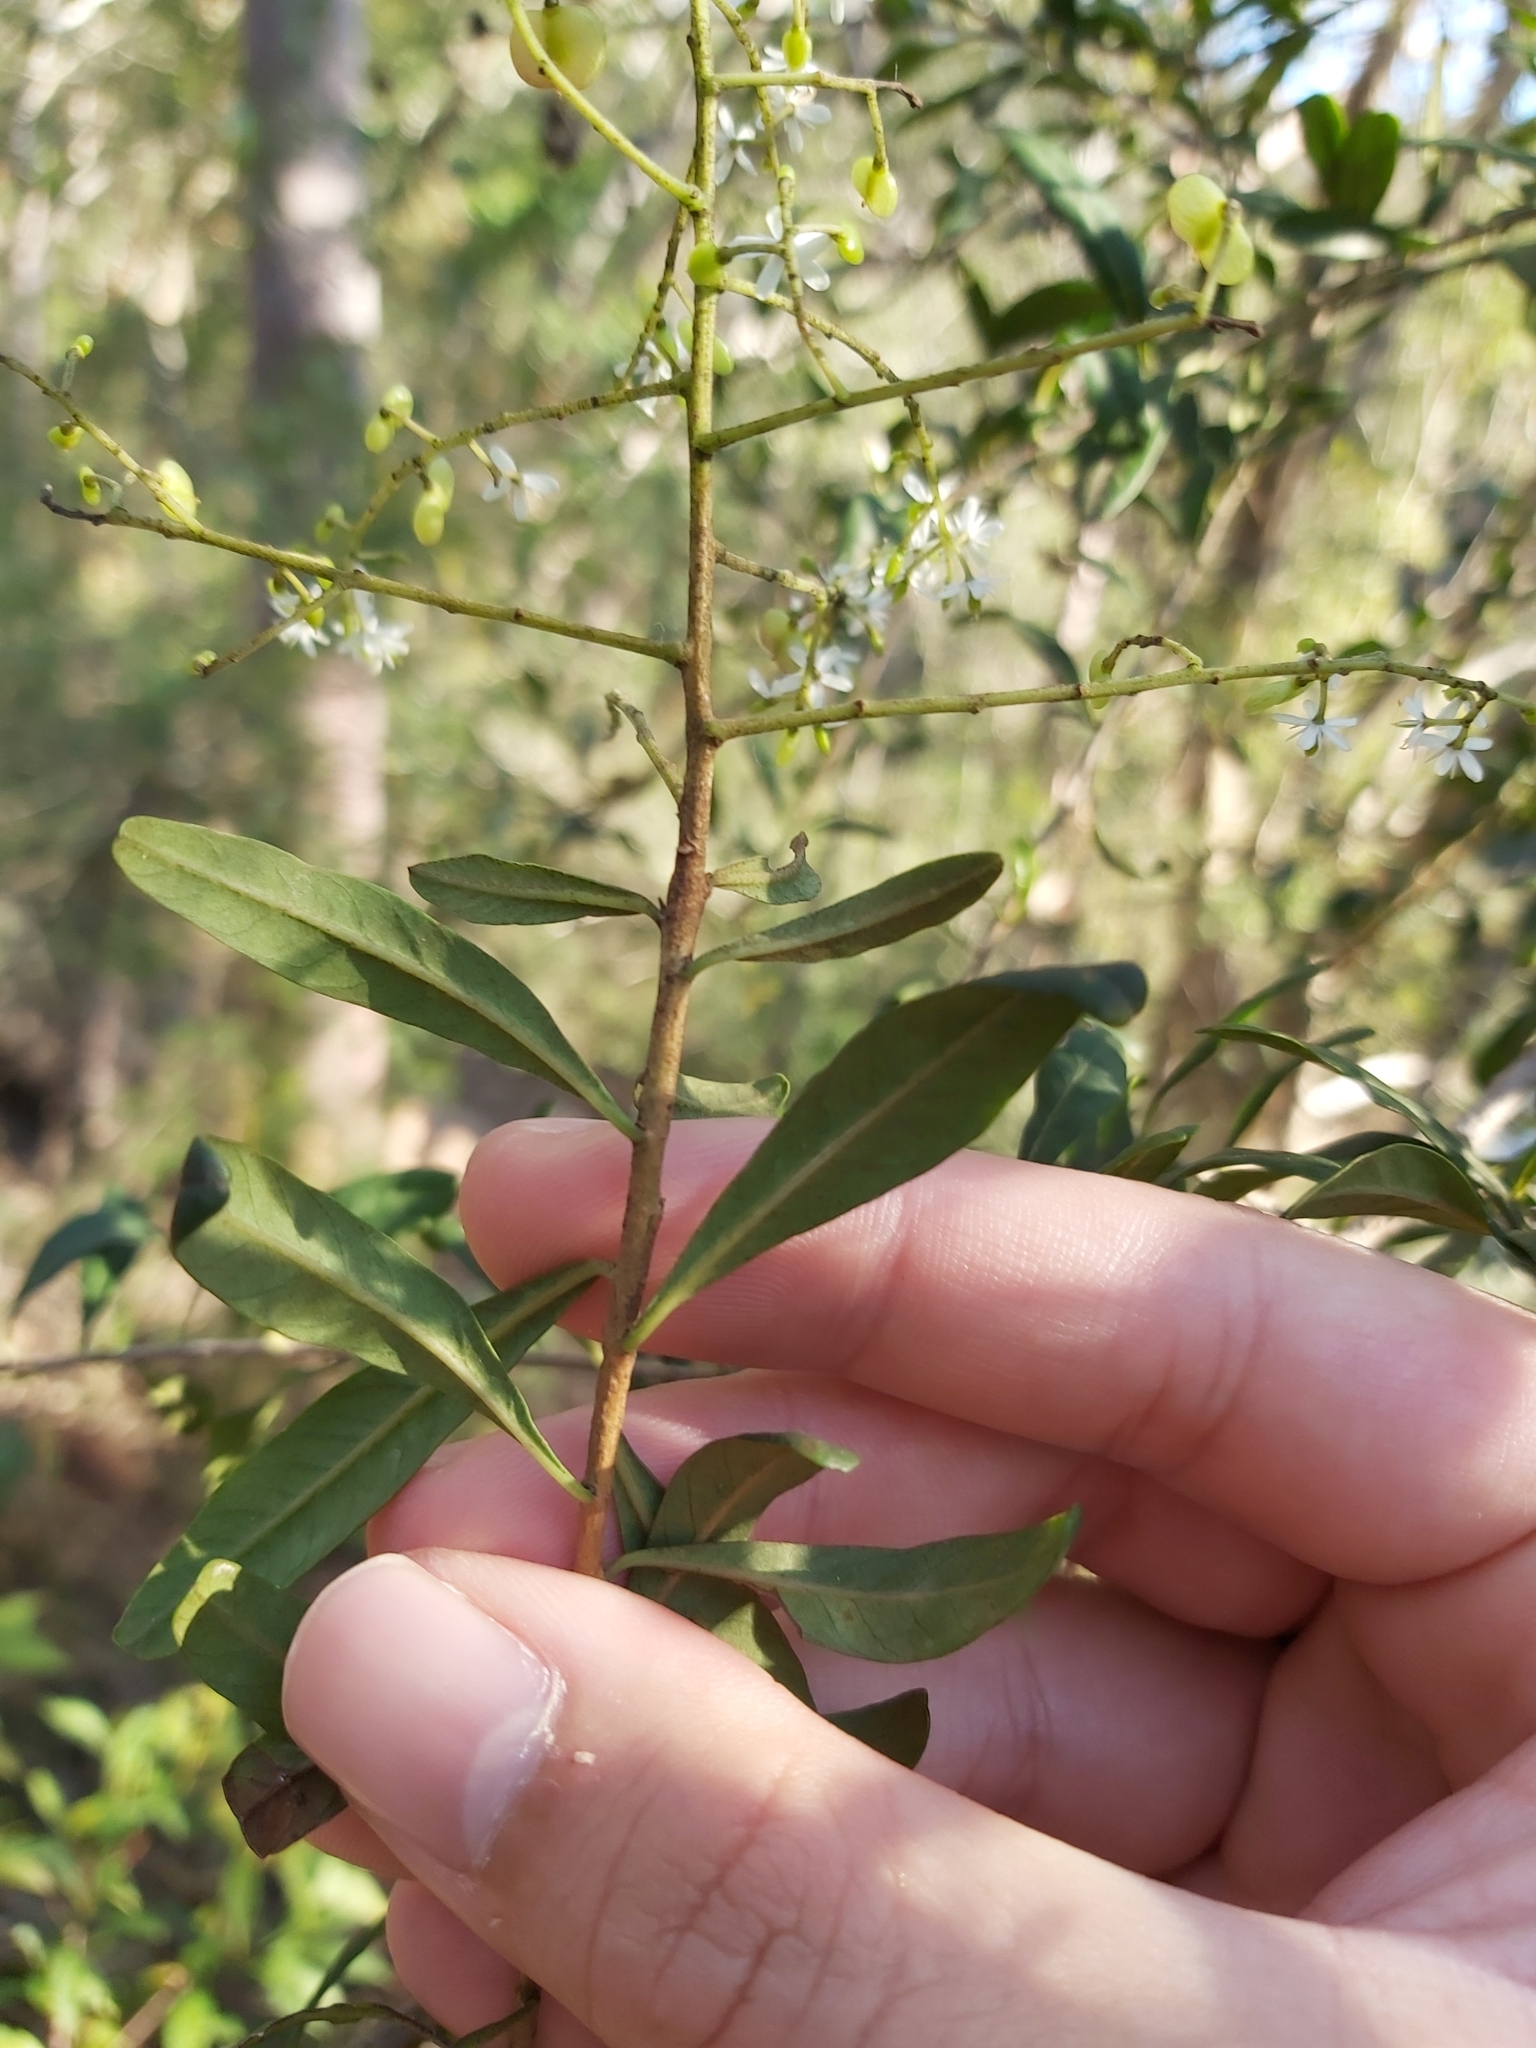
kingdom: Plantae
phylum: Tracheophyta
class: Magnoliopsida
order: Apiales
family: Pittosporaceae
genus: Bursaria
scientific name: Bursaria spinosa
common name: Australian blackthorn
